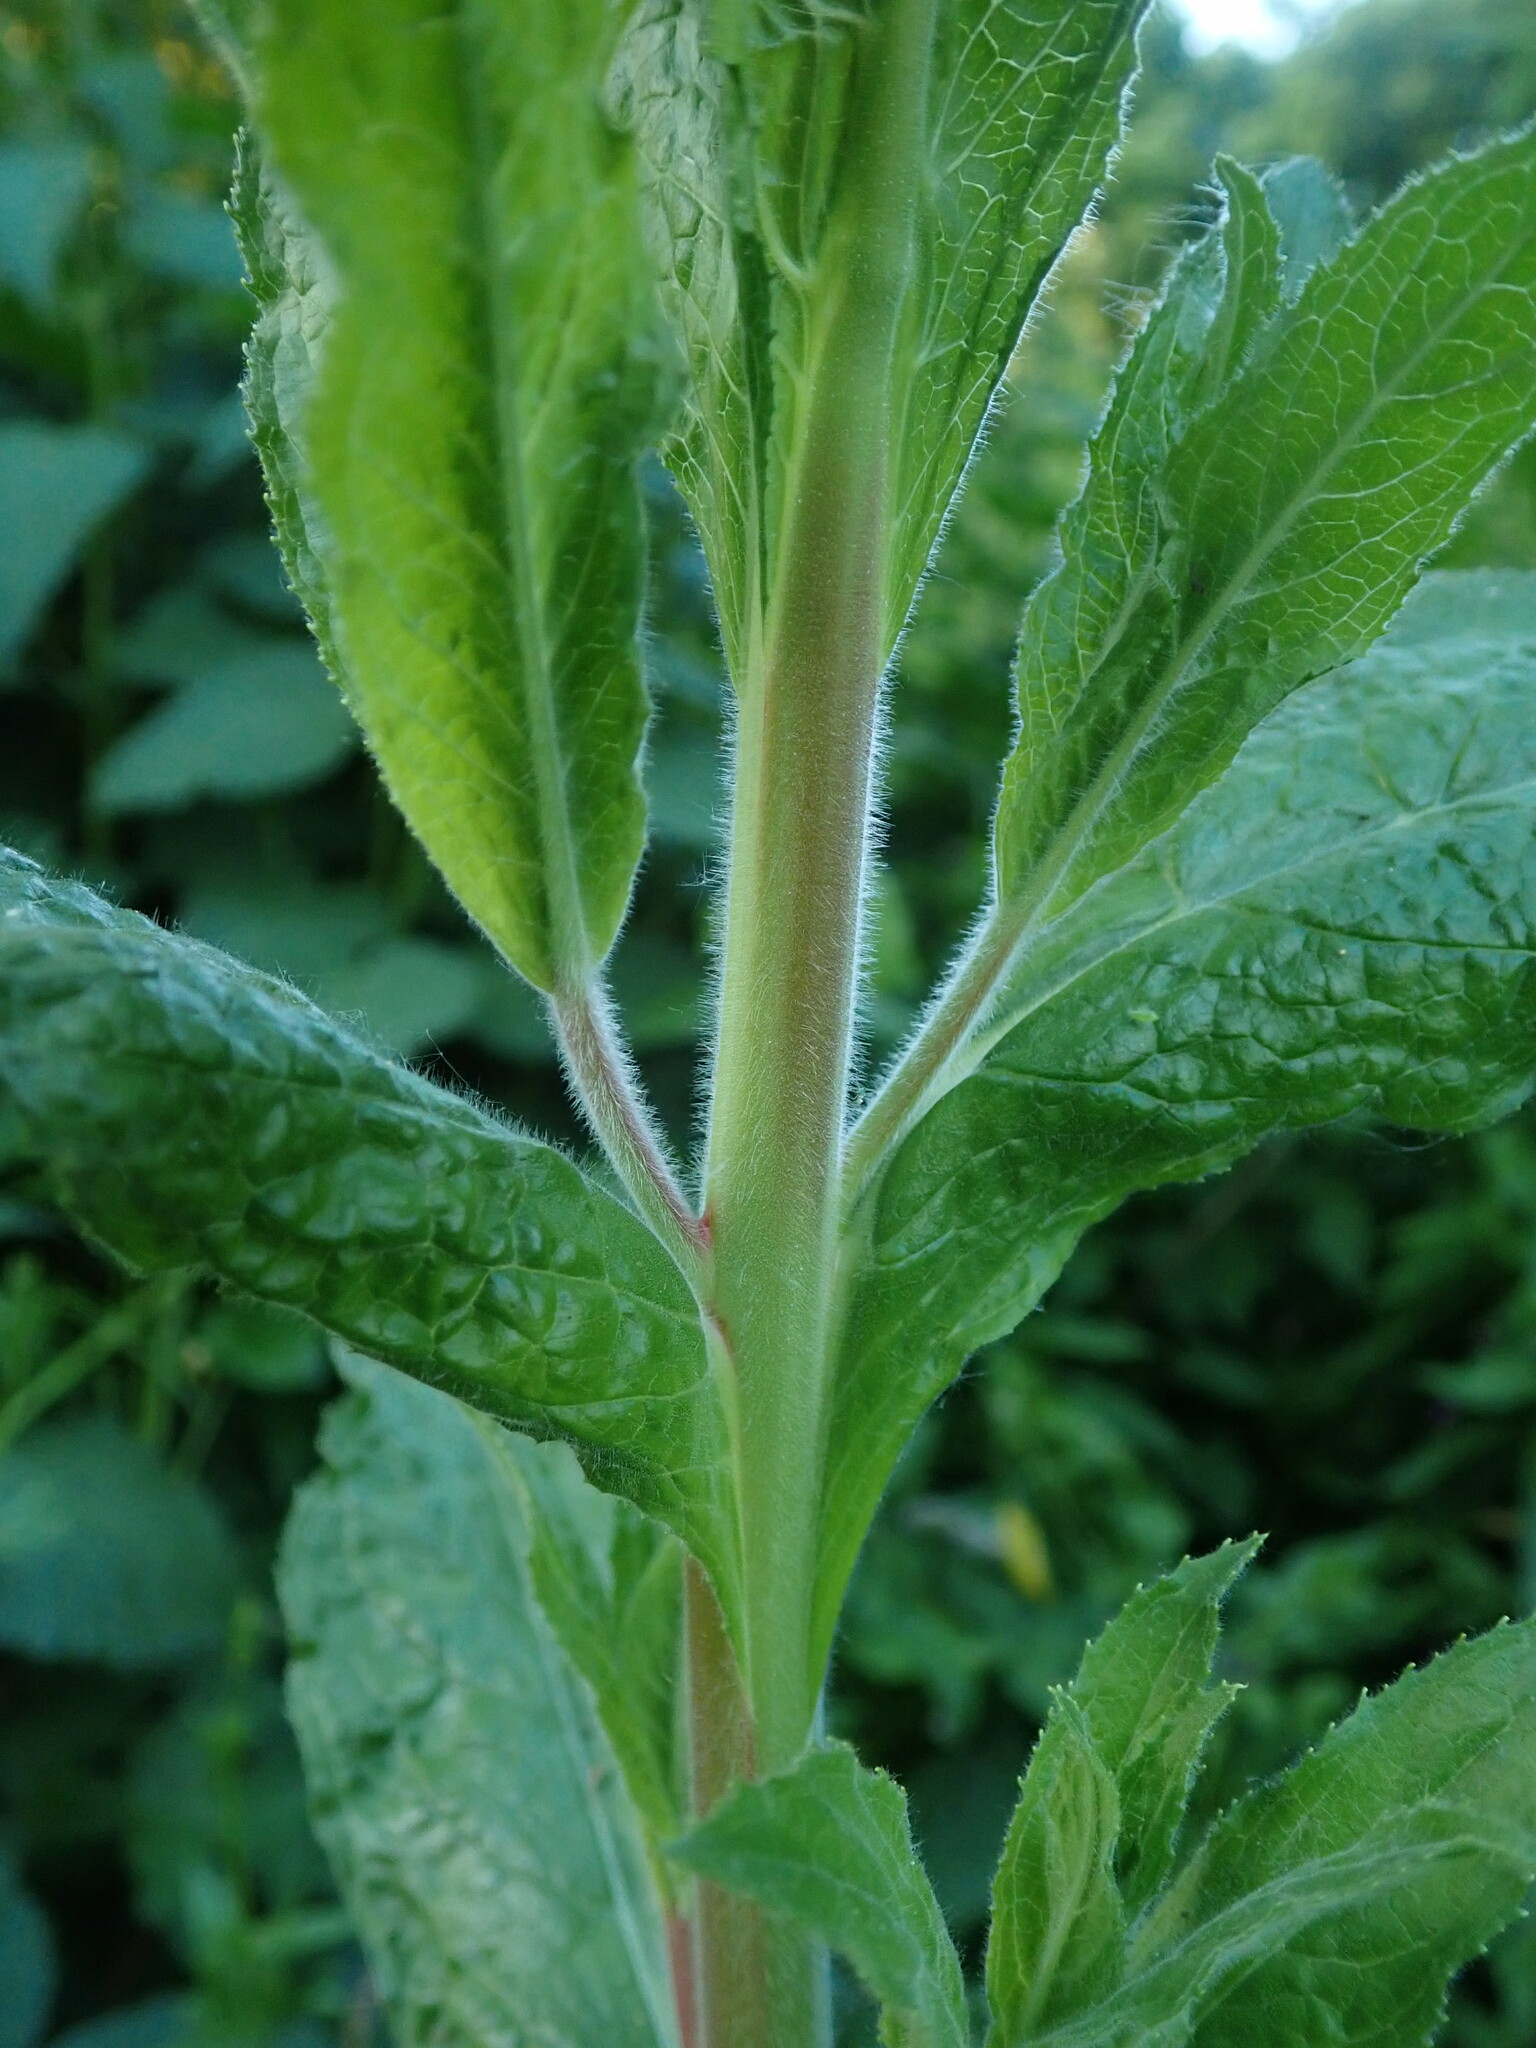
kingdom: Plantae
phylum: Tracheophyta
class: Magnoliopsida
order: Myrtales
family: Onagraceae
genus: Epilobium
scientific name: Epilobium hirsutum
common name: Great willowherb
